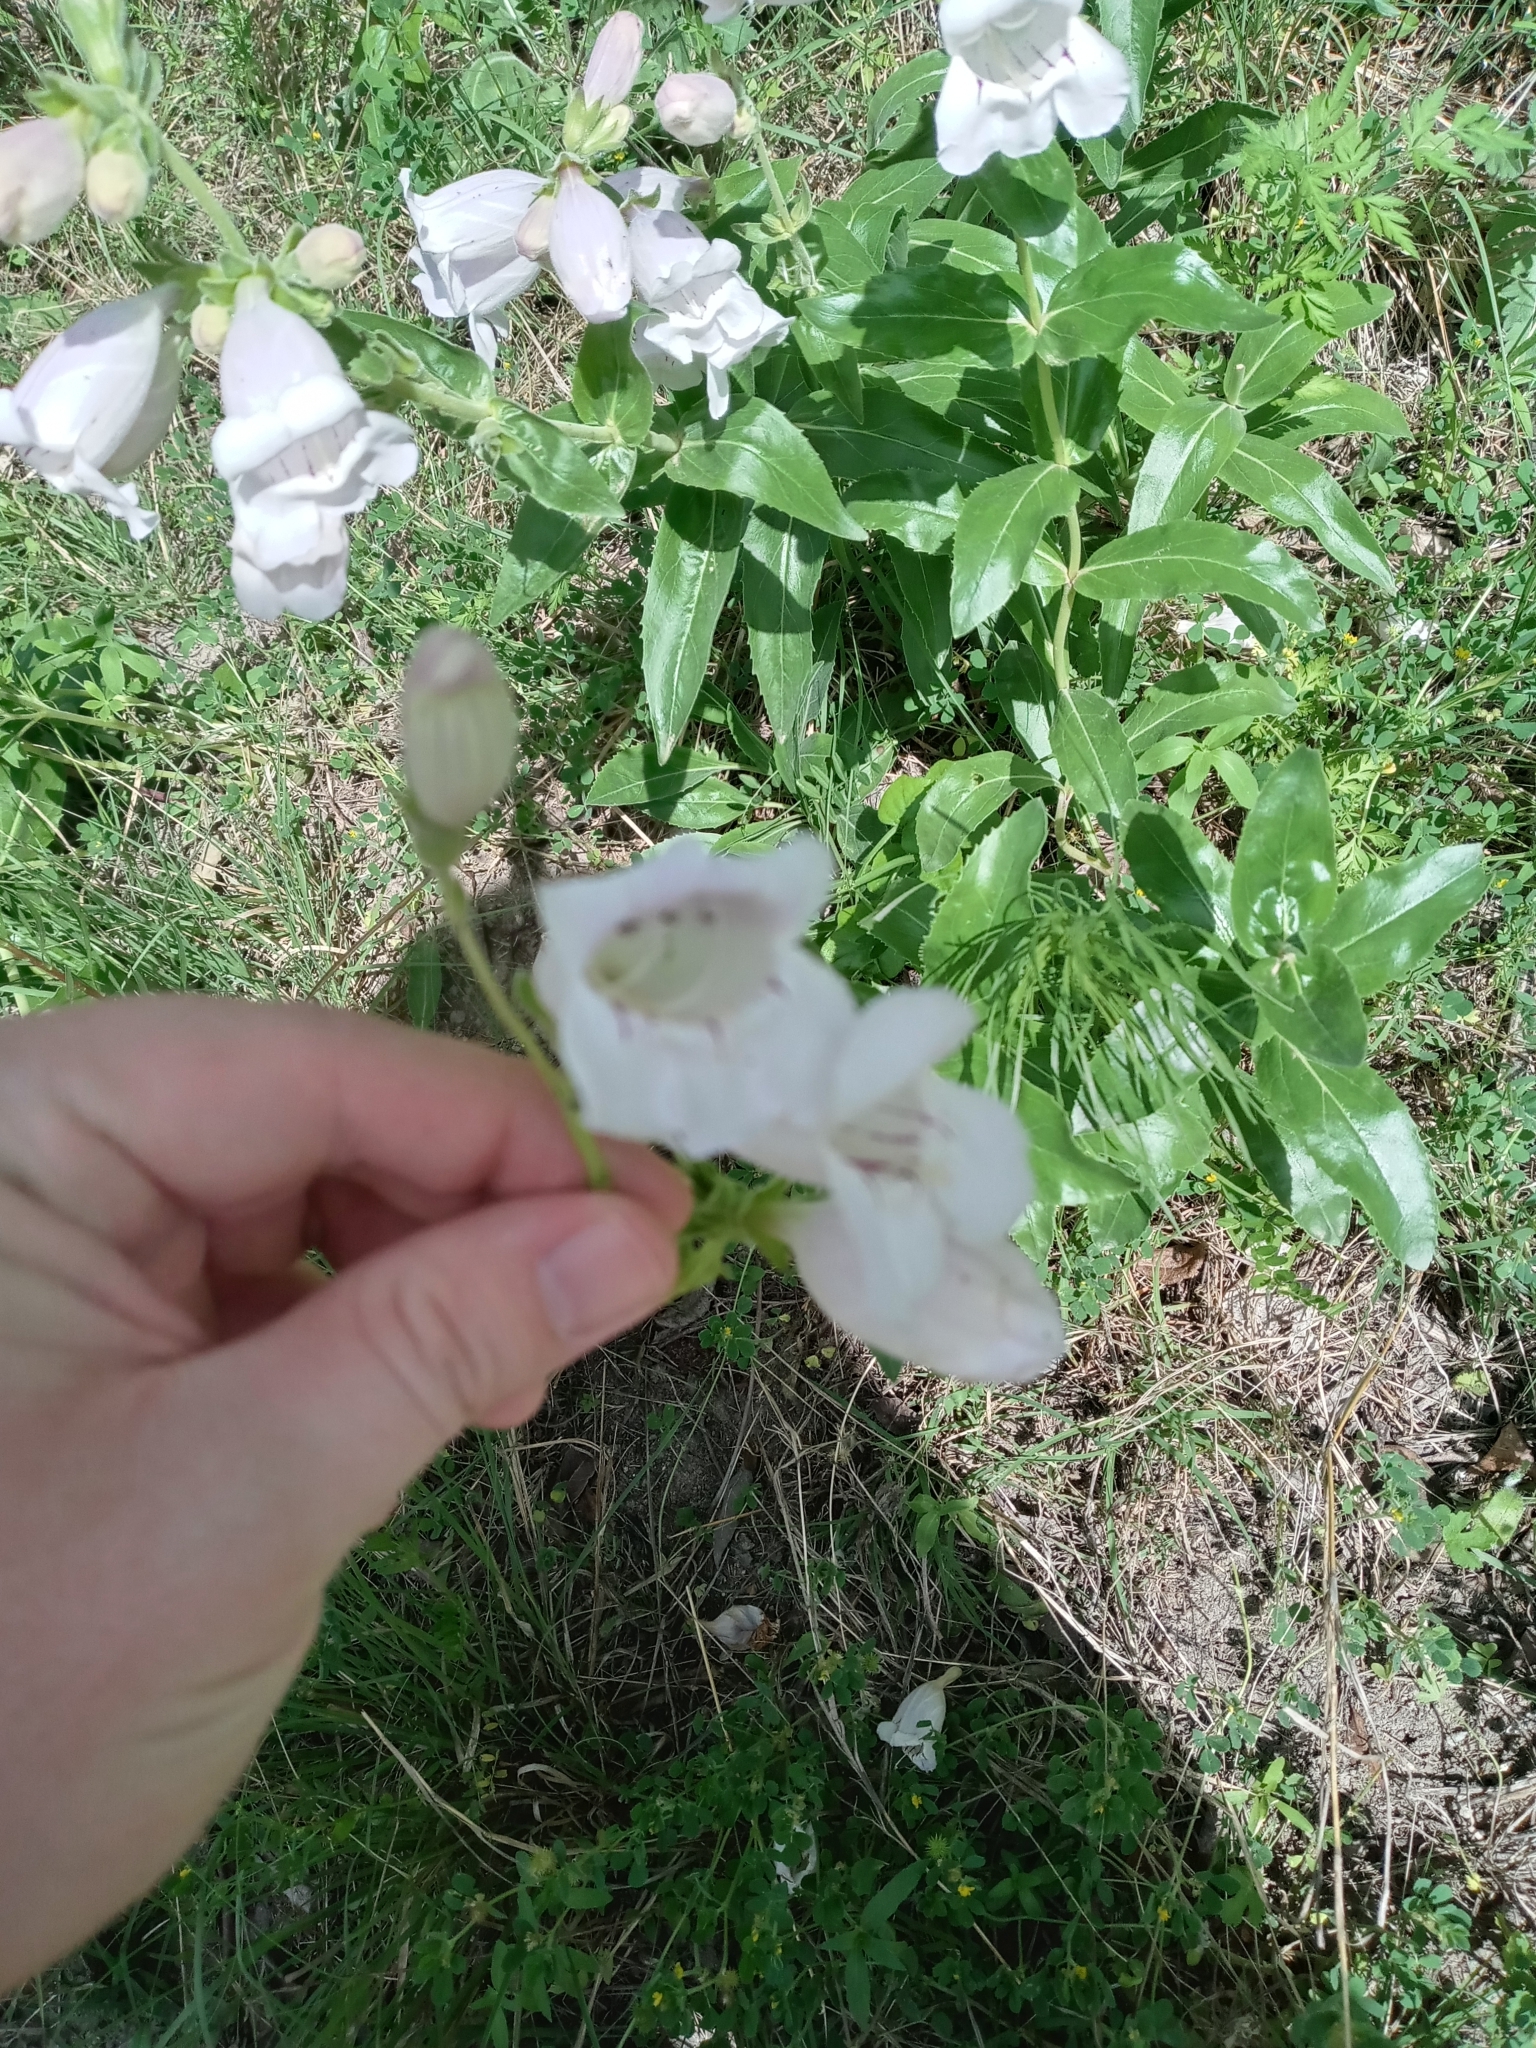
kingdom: Plantae
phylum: Tracheophyta
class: Magnoliopsida
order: Lamiales
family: Plantaginaceae
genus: Penstemon
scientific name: Penstemon cobaea
